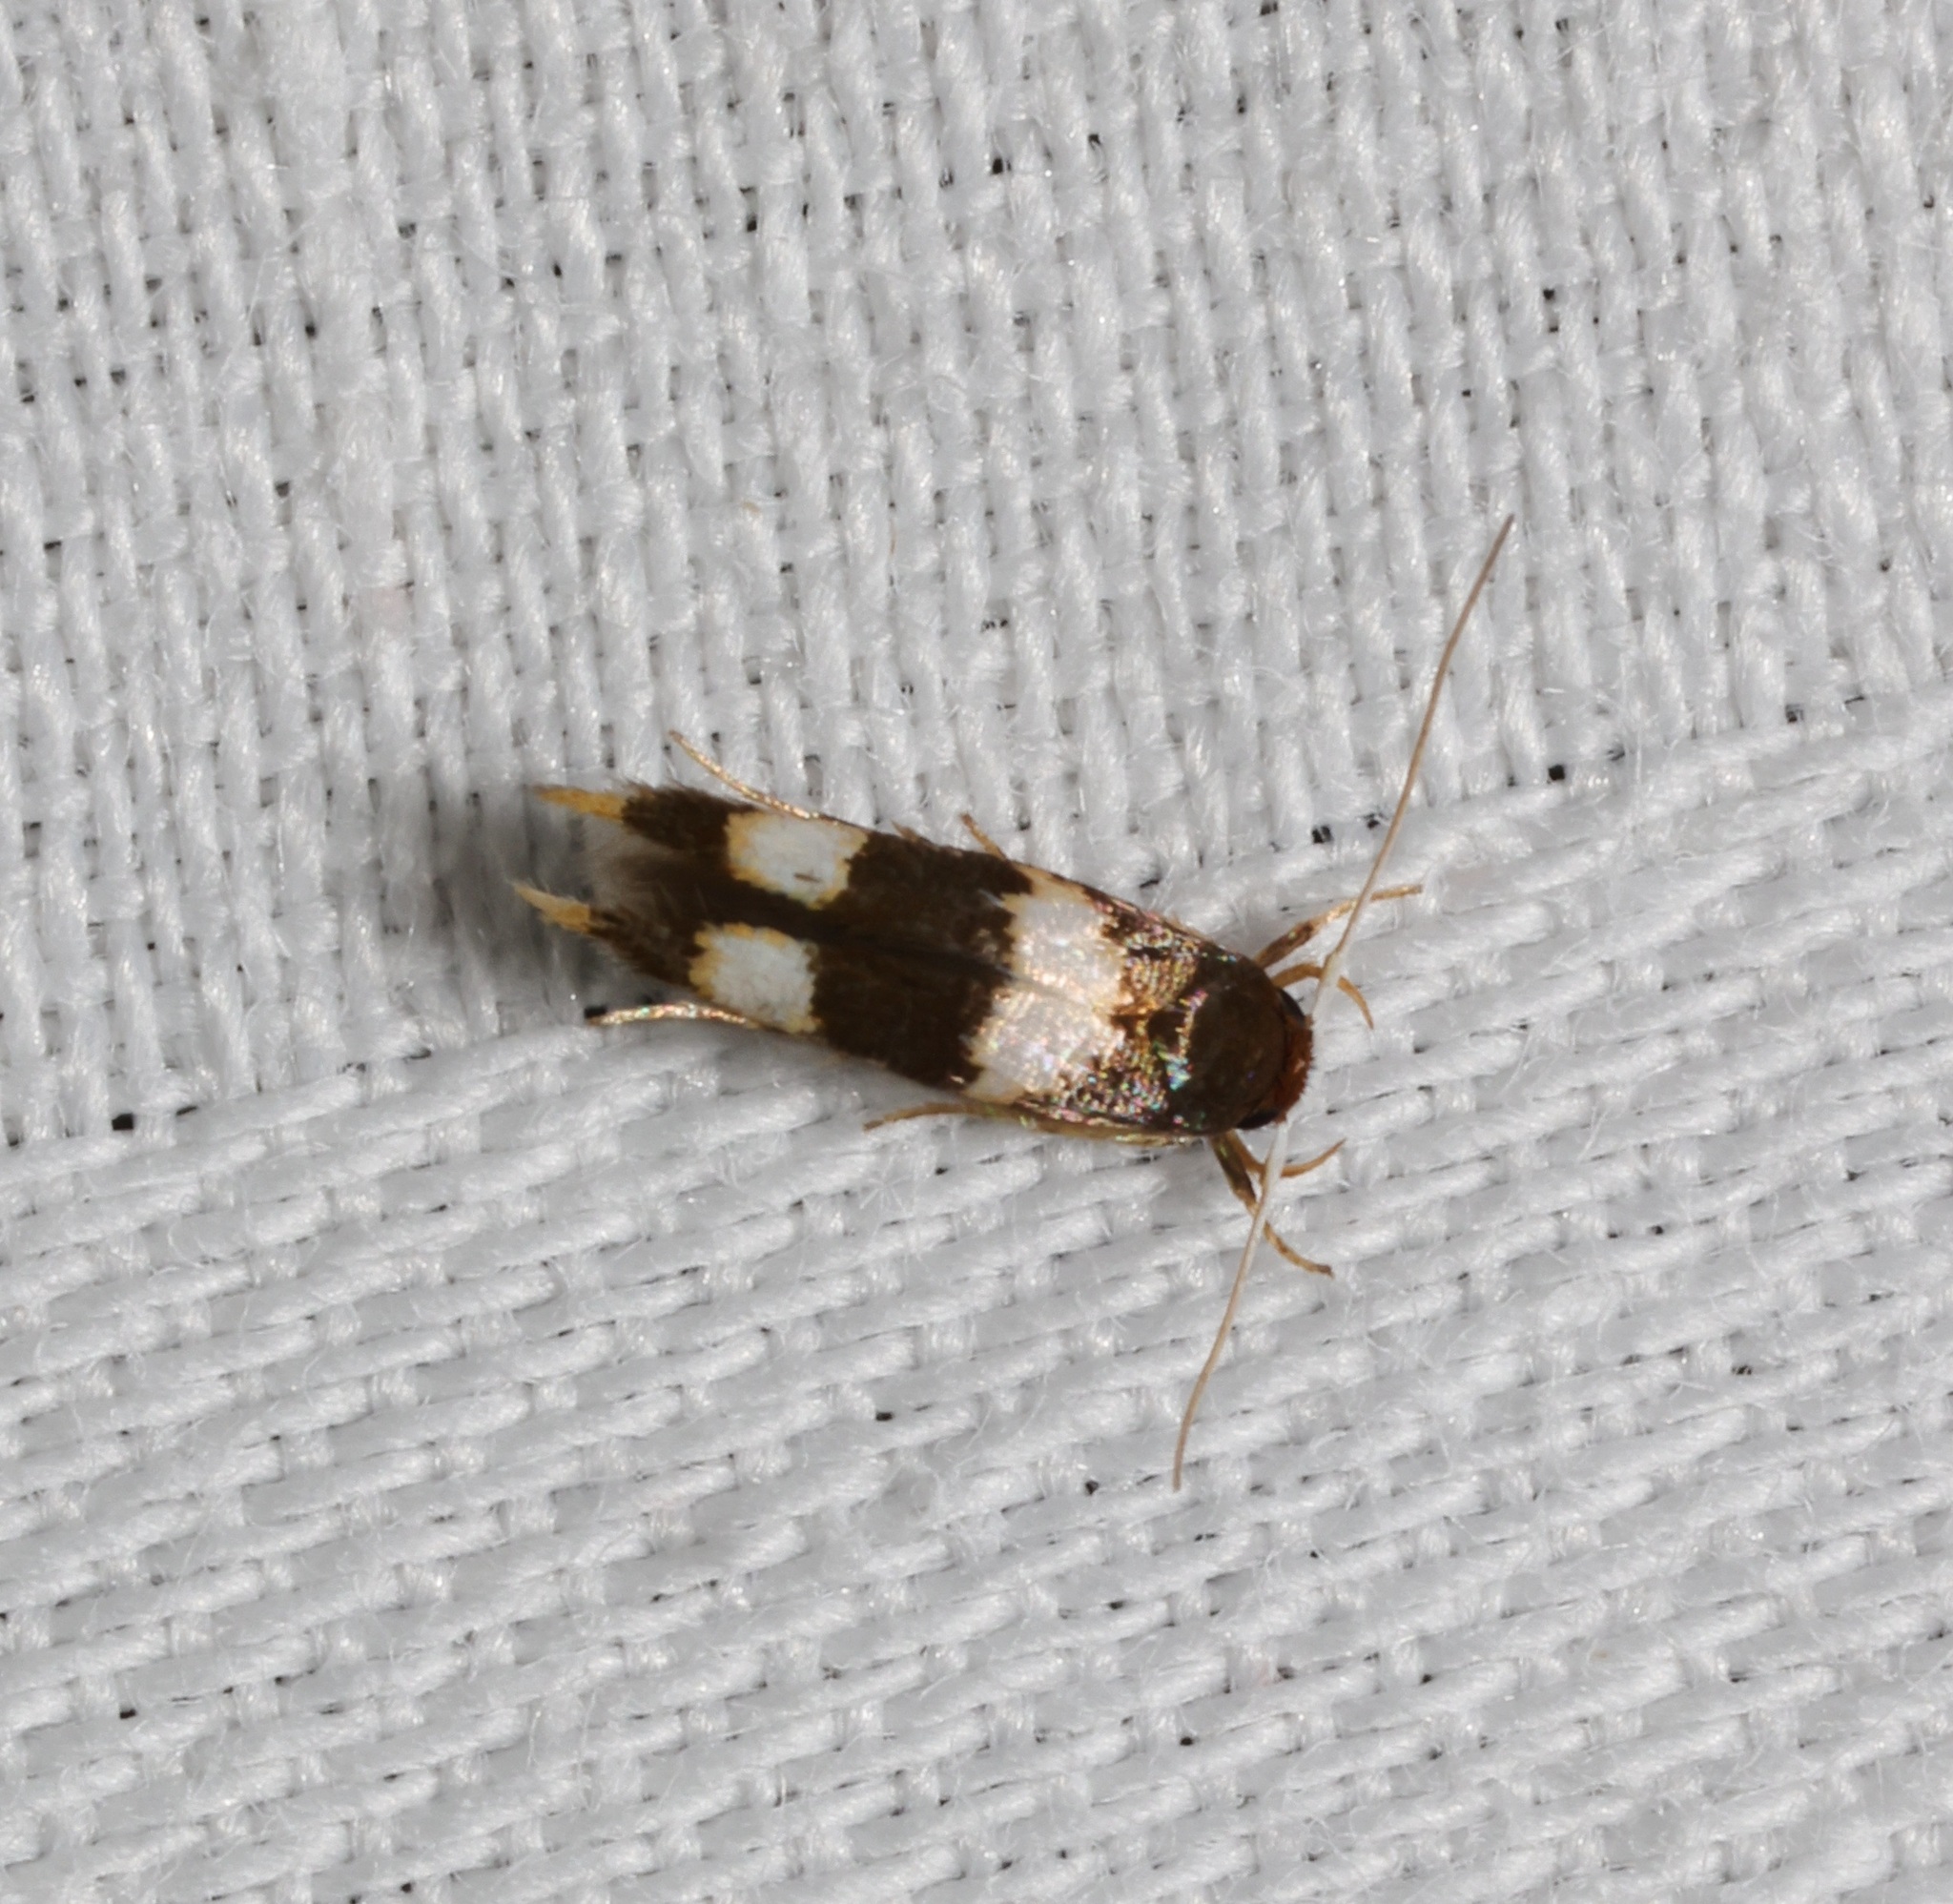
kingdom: Animalia
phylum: Arthropoda
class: Insecta
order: Lepidoptera
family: Stathmopodidae
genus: Stathmopoda
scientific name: Stathmopoda
